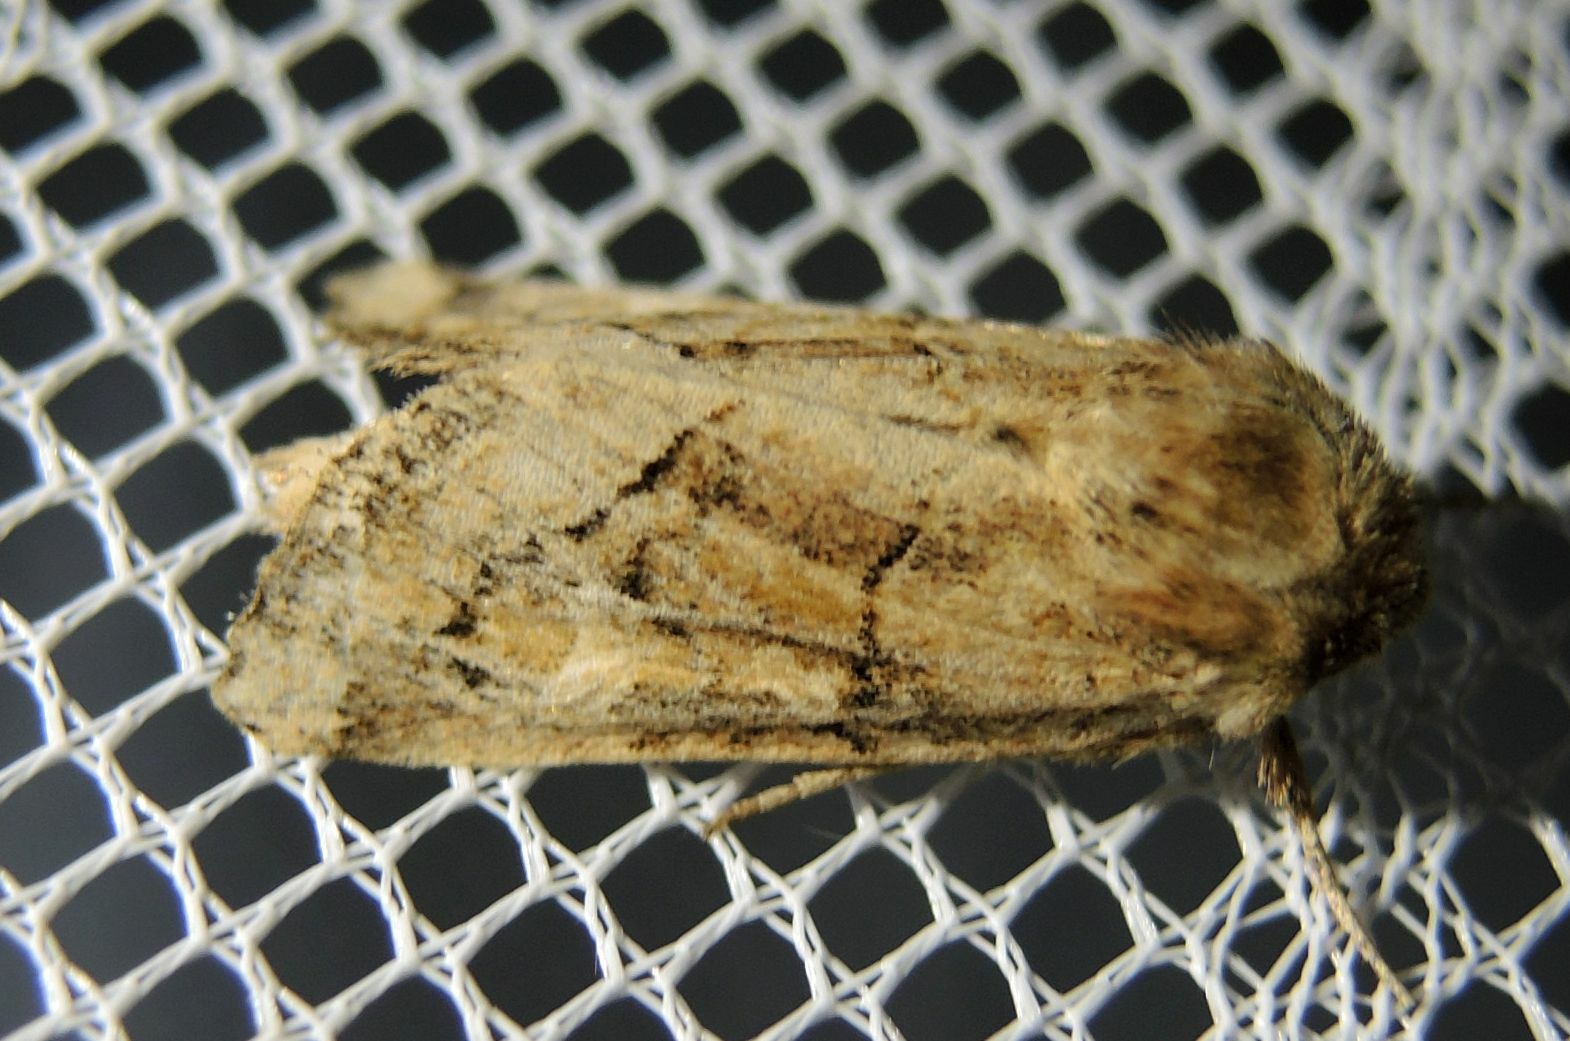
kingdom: Animalia
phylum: Arthropoda
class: Insecta
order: Lepidoptera
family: Noctuidae
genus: Luperina
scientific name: Luperina dumerilii
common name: Dumeril's rustic
